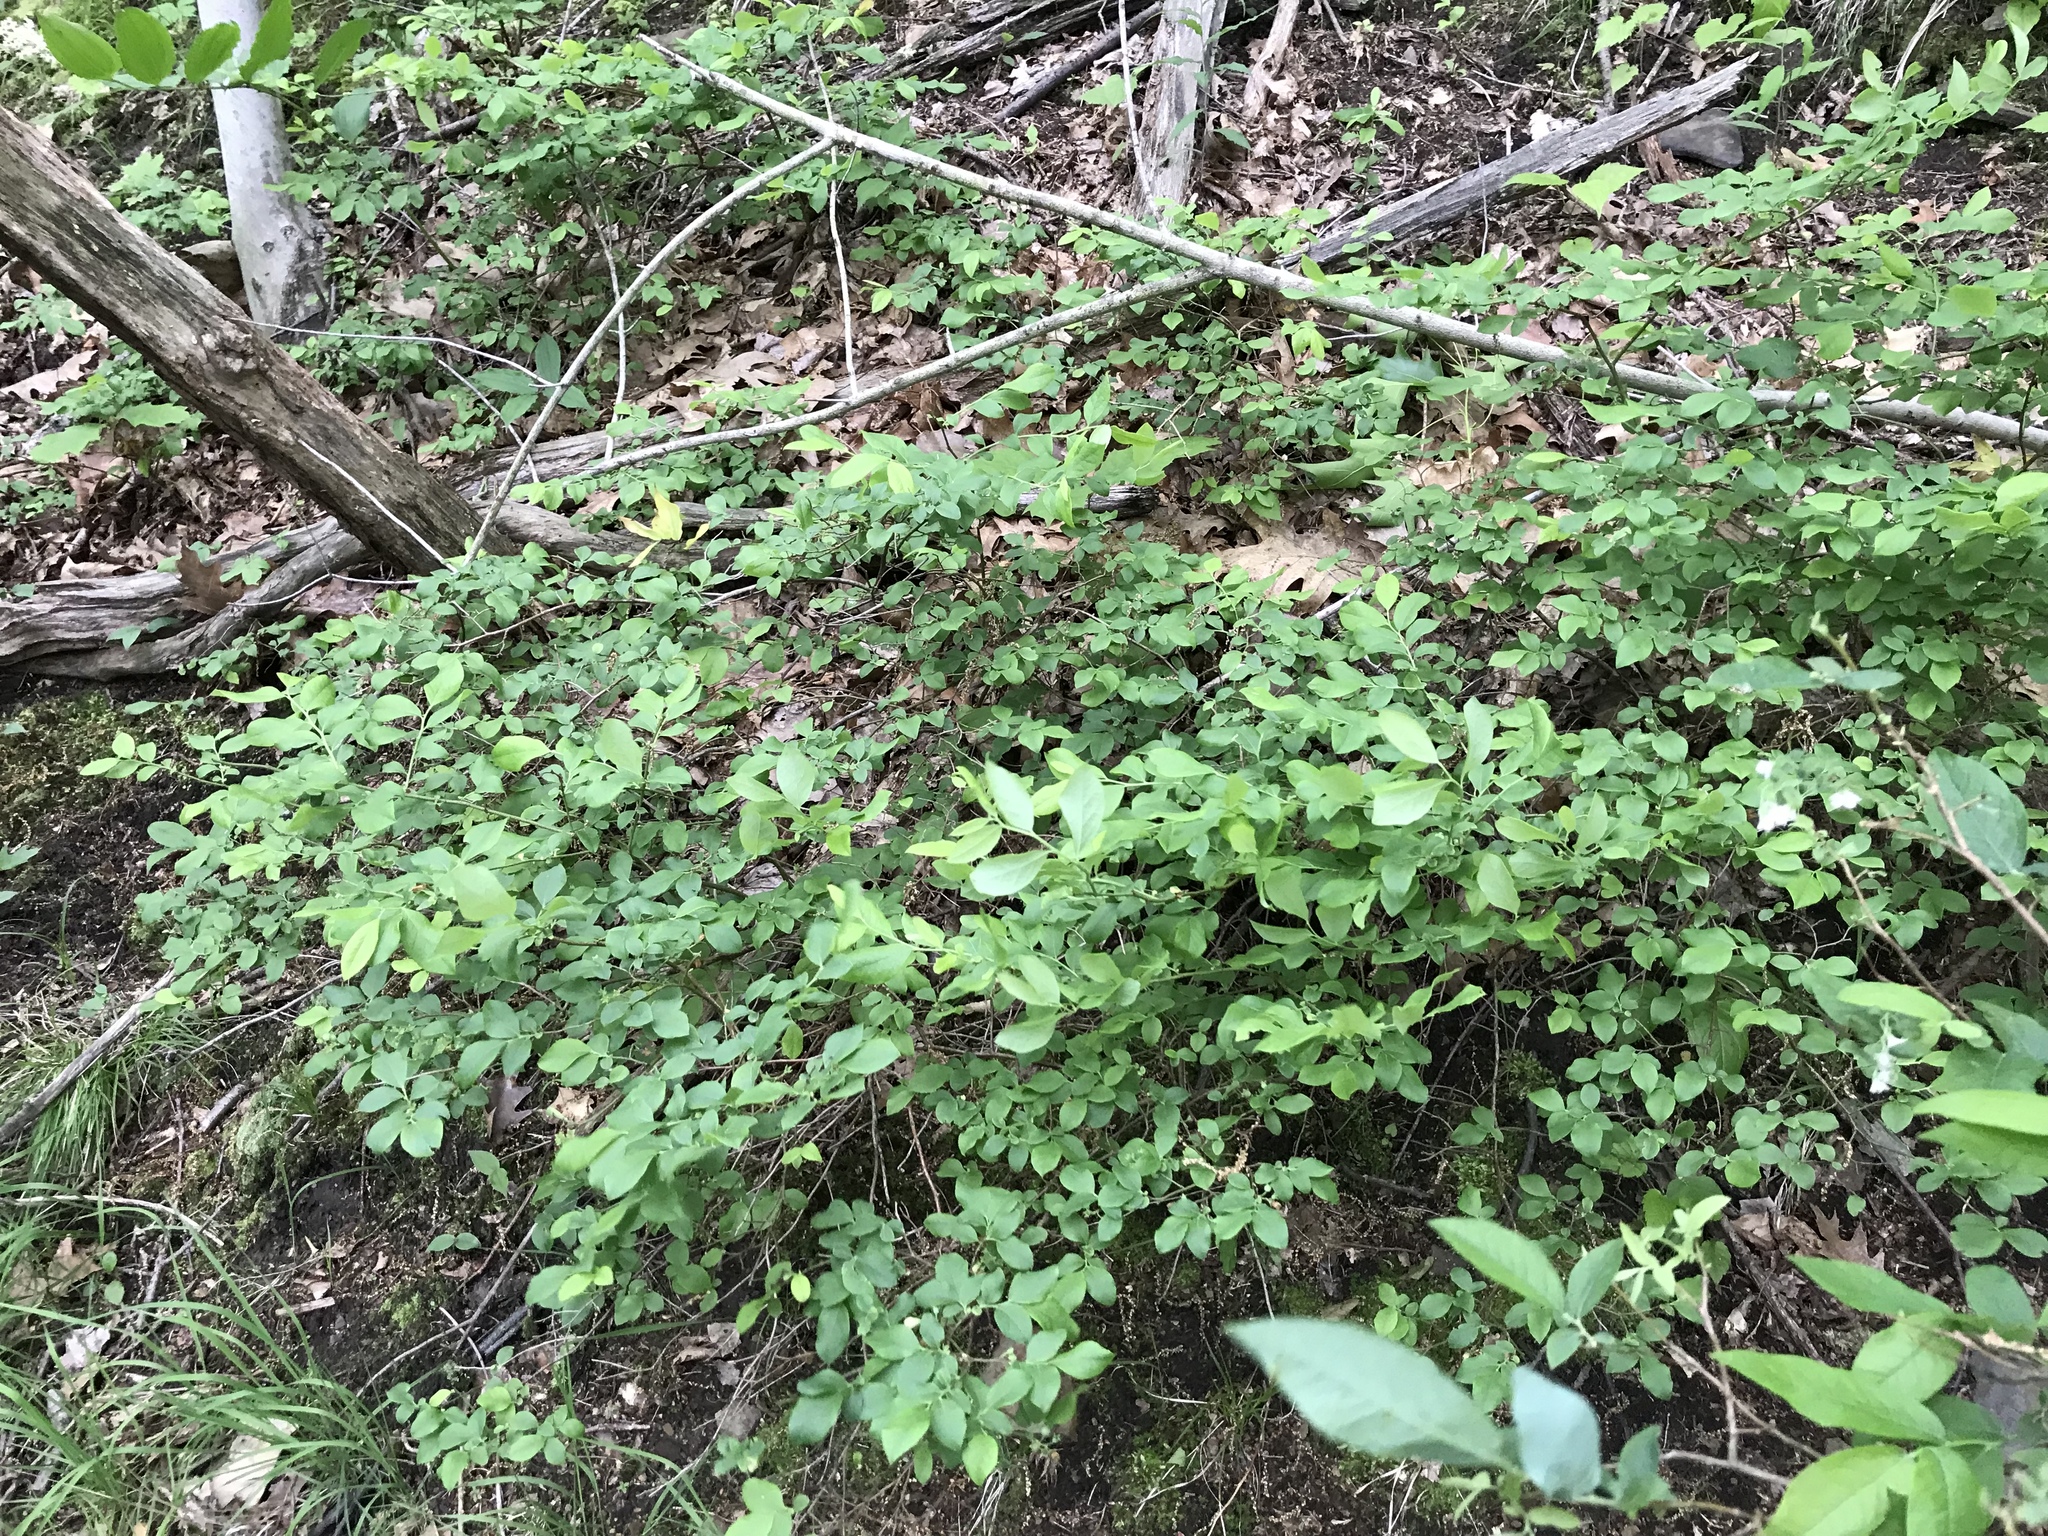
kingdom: Plantae
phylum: Tracheophyta
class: Magnoliopsida
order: Ericales
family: Ericaceae
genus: Vaccinium
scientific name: Vaccinium stamineum
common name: Deerberry
